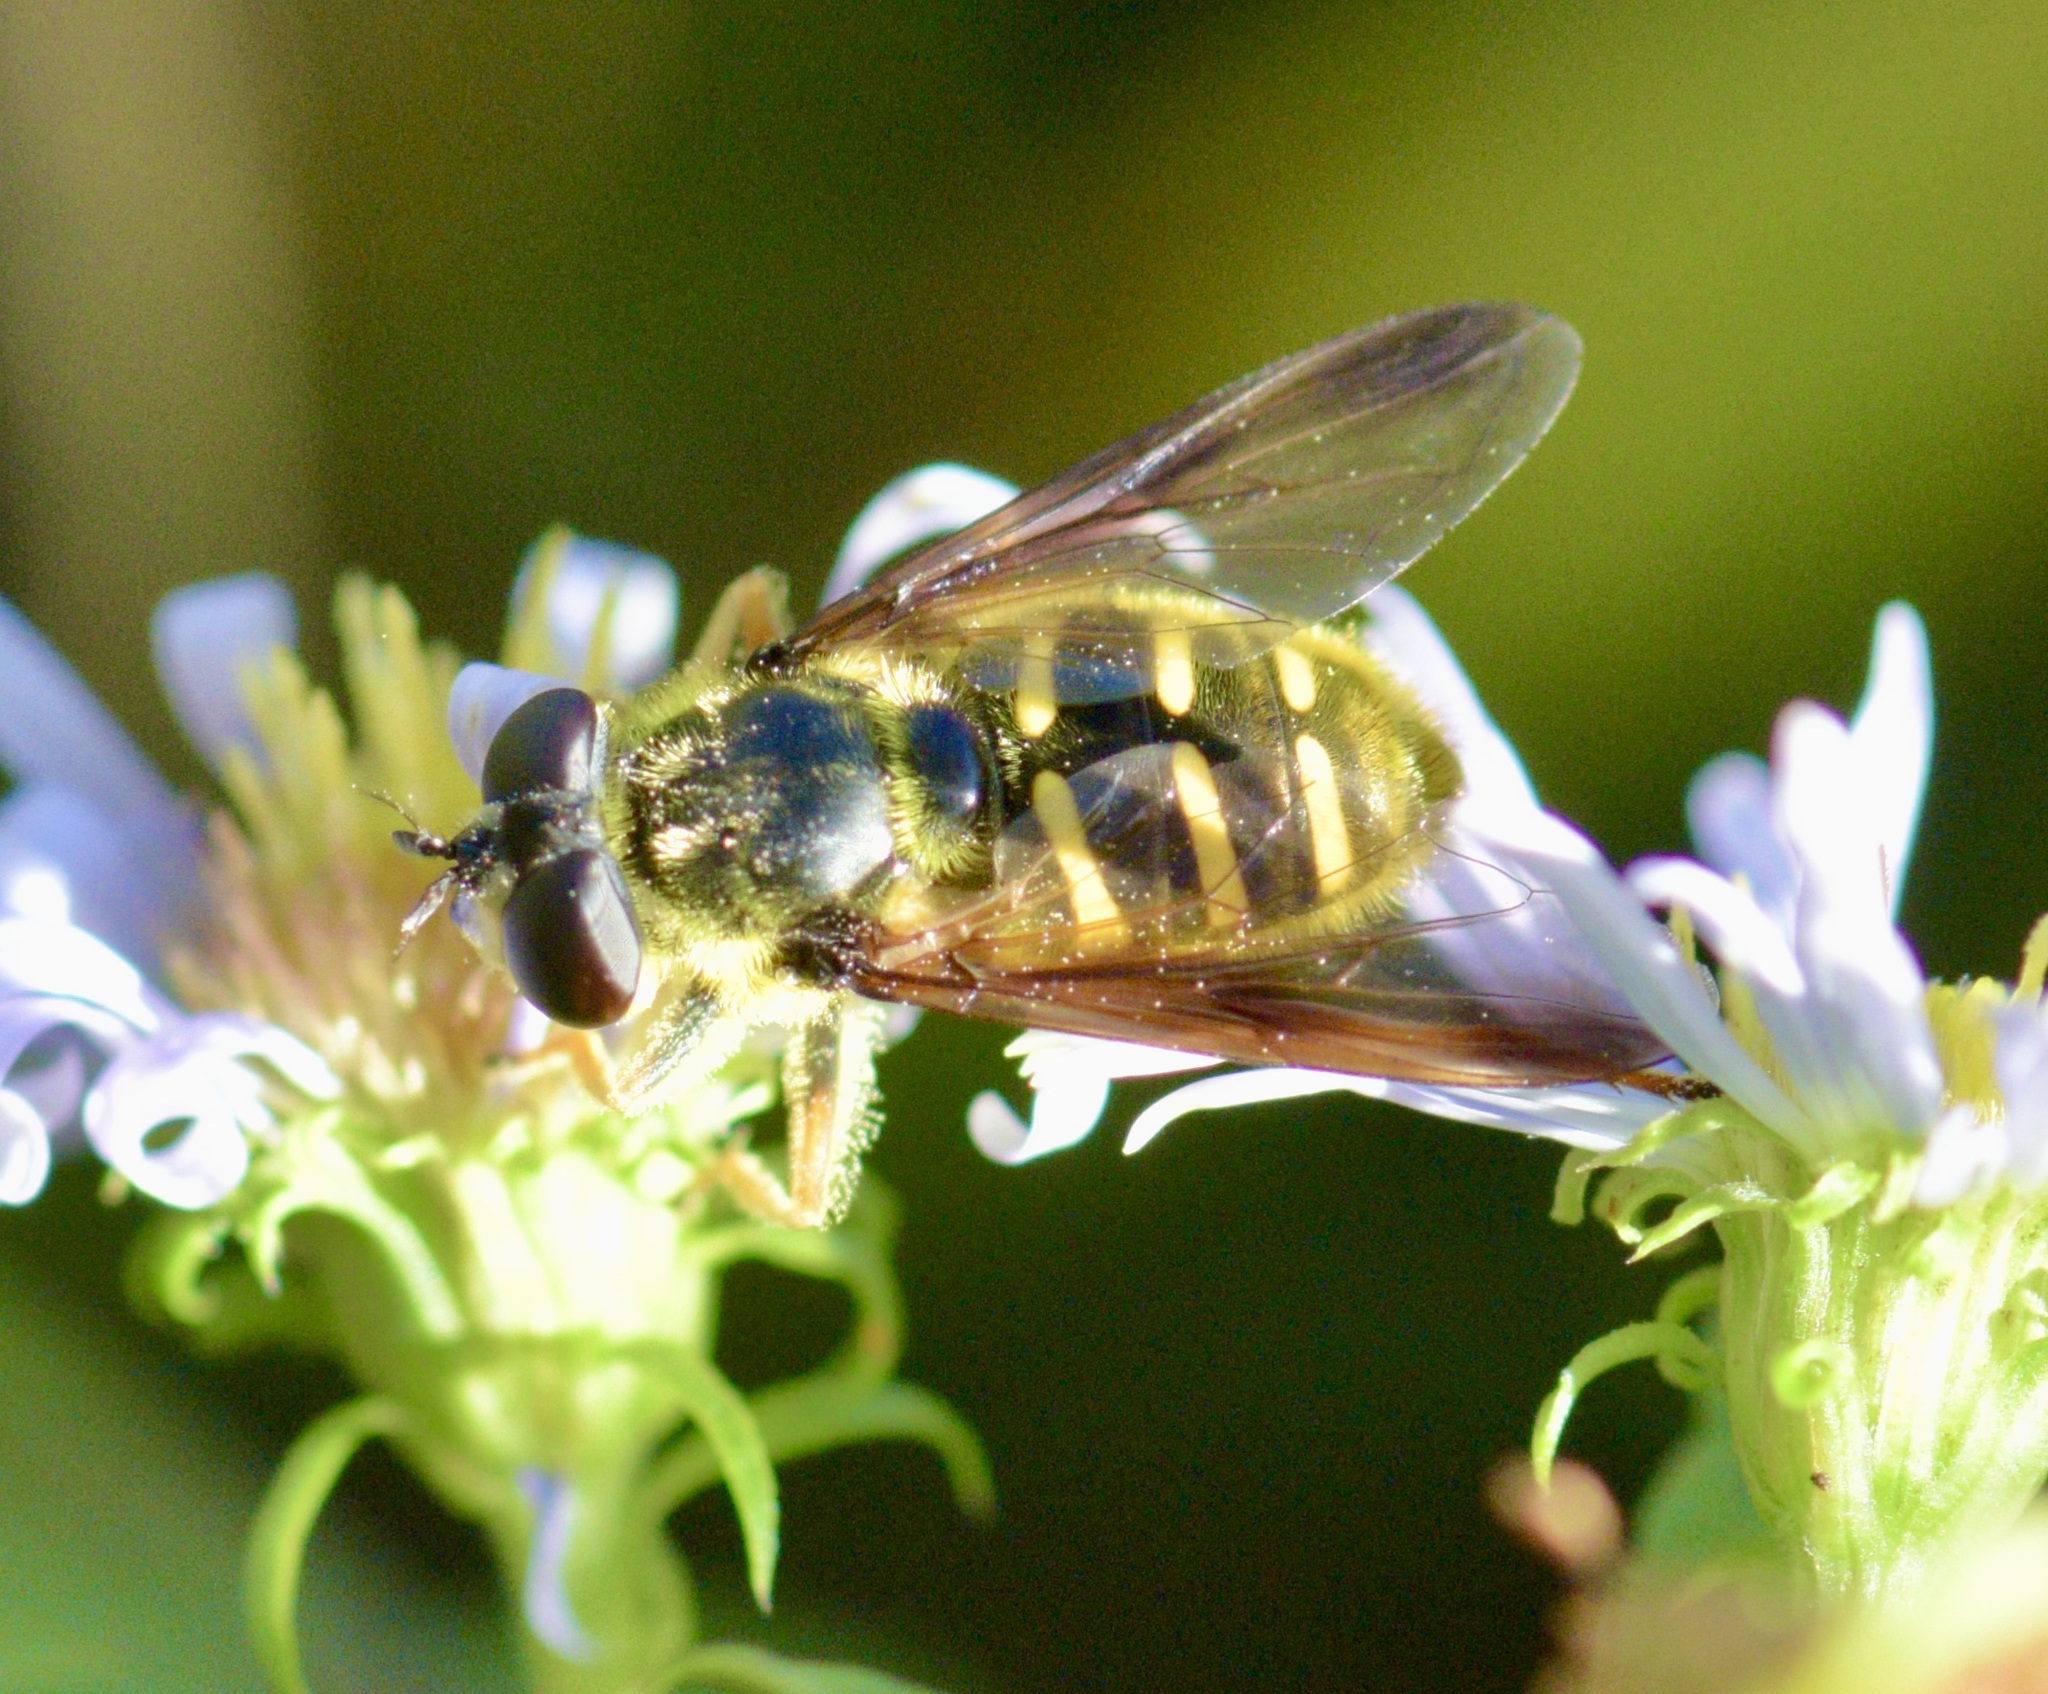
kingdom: Animalia
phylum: Arthropoda
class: Insecta
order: Diptera
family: Syrphidae
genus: Sericomyia
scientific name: Sericomyia chrysotoxoides
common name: Oblique-banded pond fly
